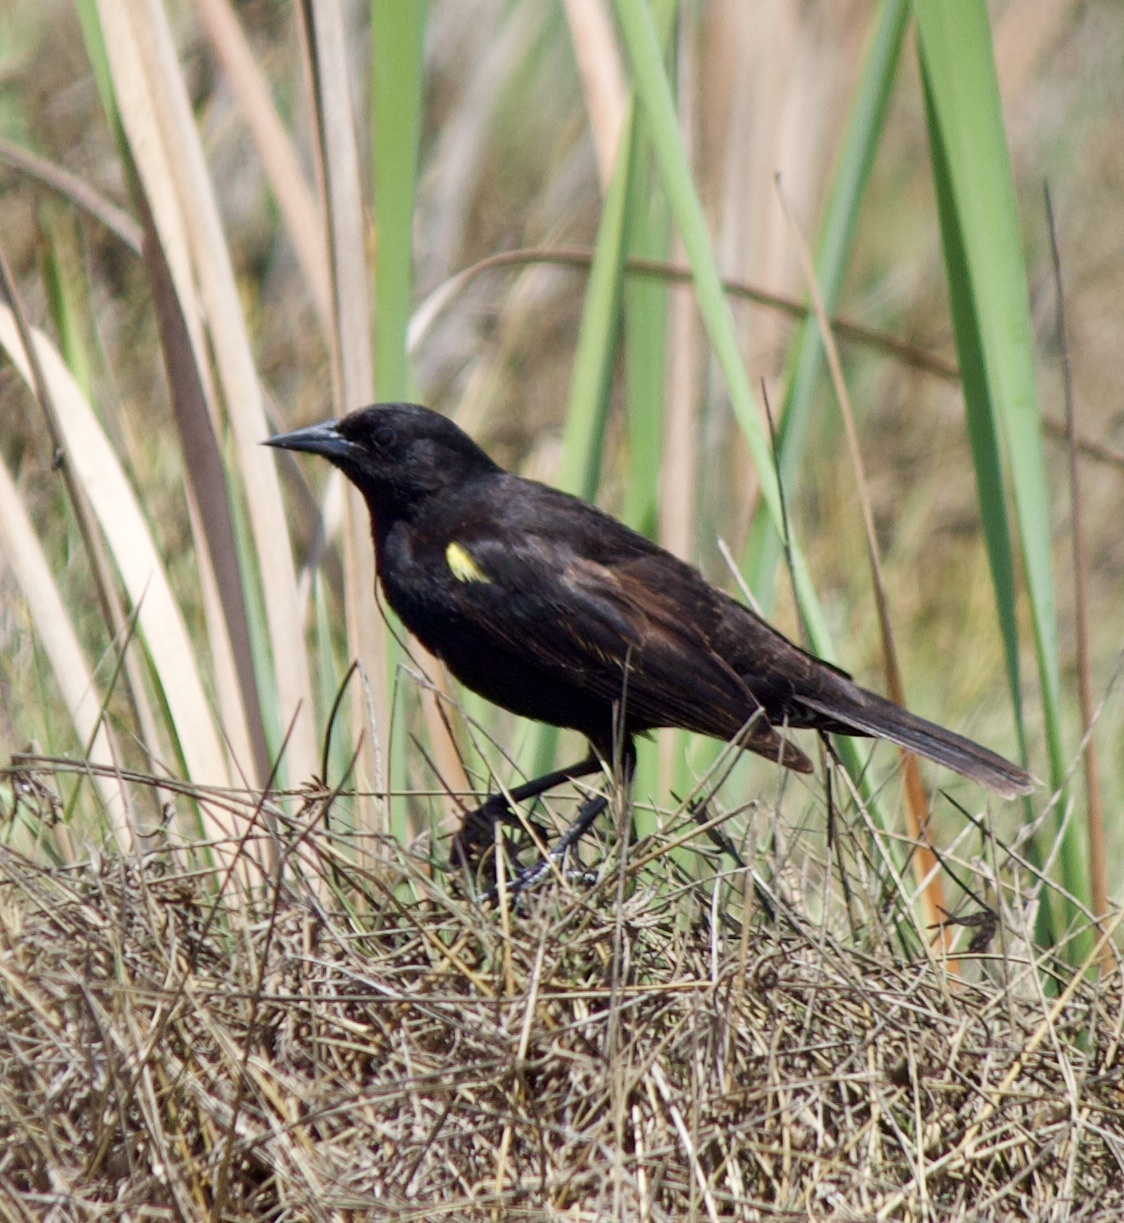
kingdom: Animalia
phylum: Chordata
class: Aves
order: Passeriformes
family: Icteridae
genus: Agelasticus
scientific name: Agelasticus thilius
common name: Yellow-winged blackbird
